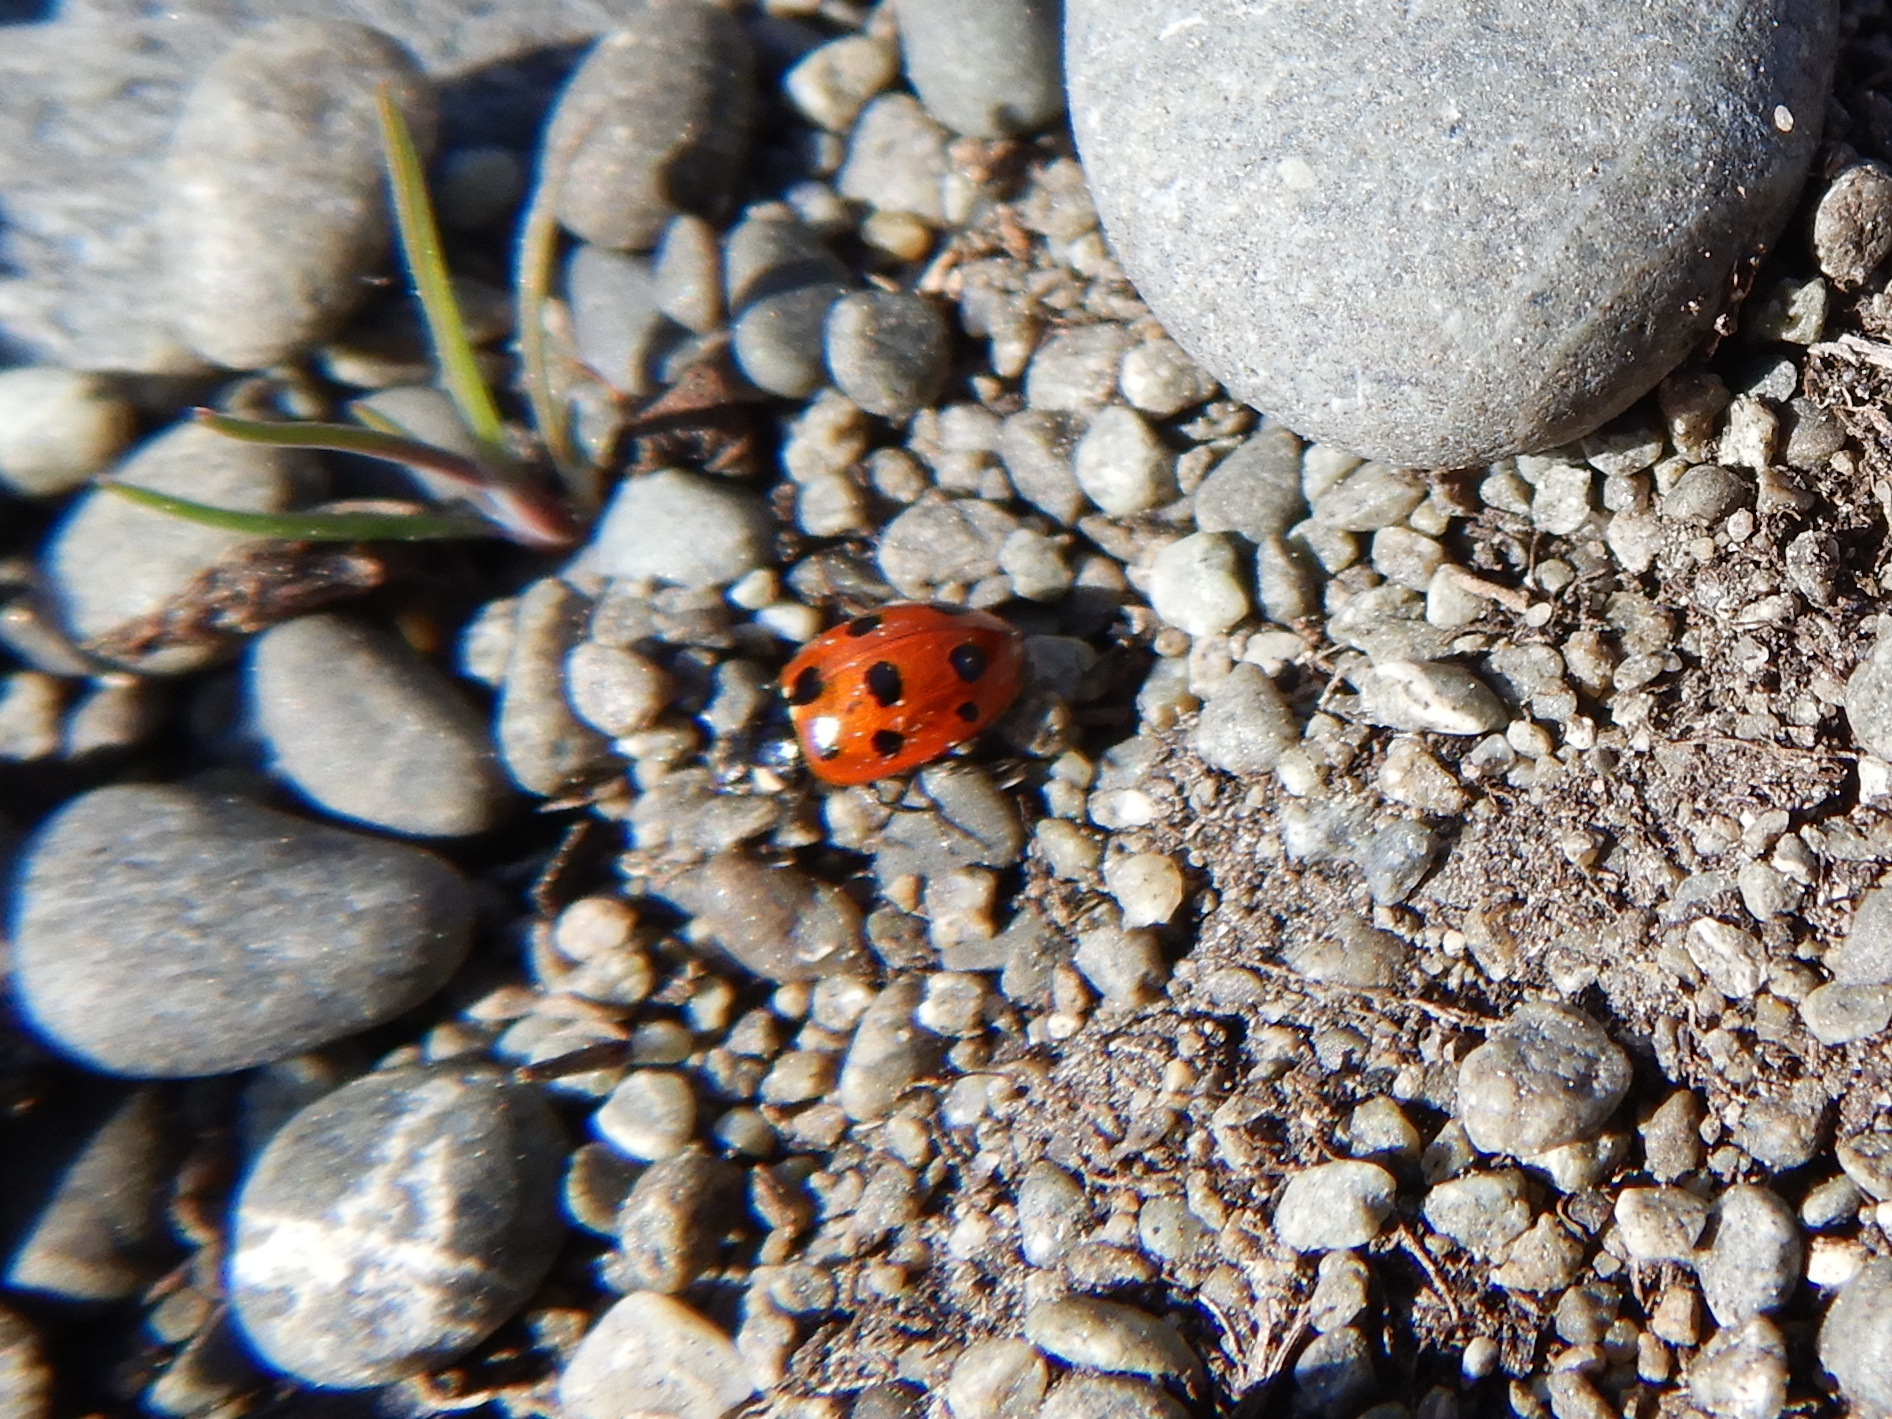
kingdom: Animalia
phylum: Arthropoda
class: Insecta
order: Coleoptera
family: Coccinellidae
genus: Coccinella
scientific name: Coccinella undecimpunctata
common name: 11-spot ladybird
